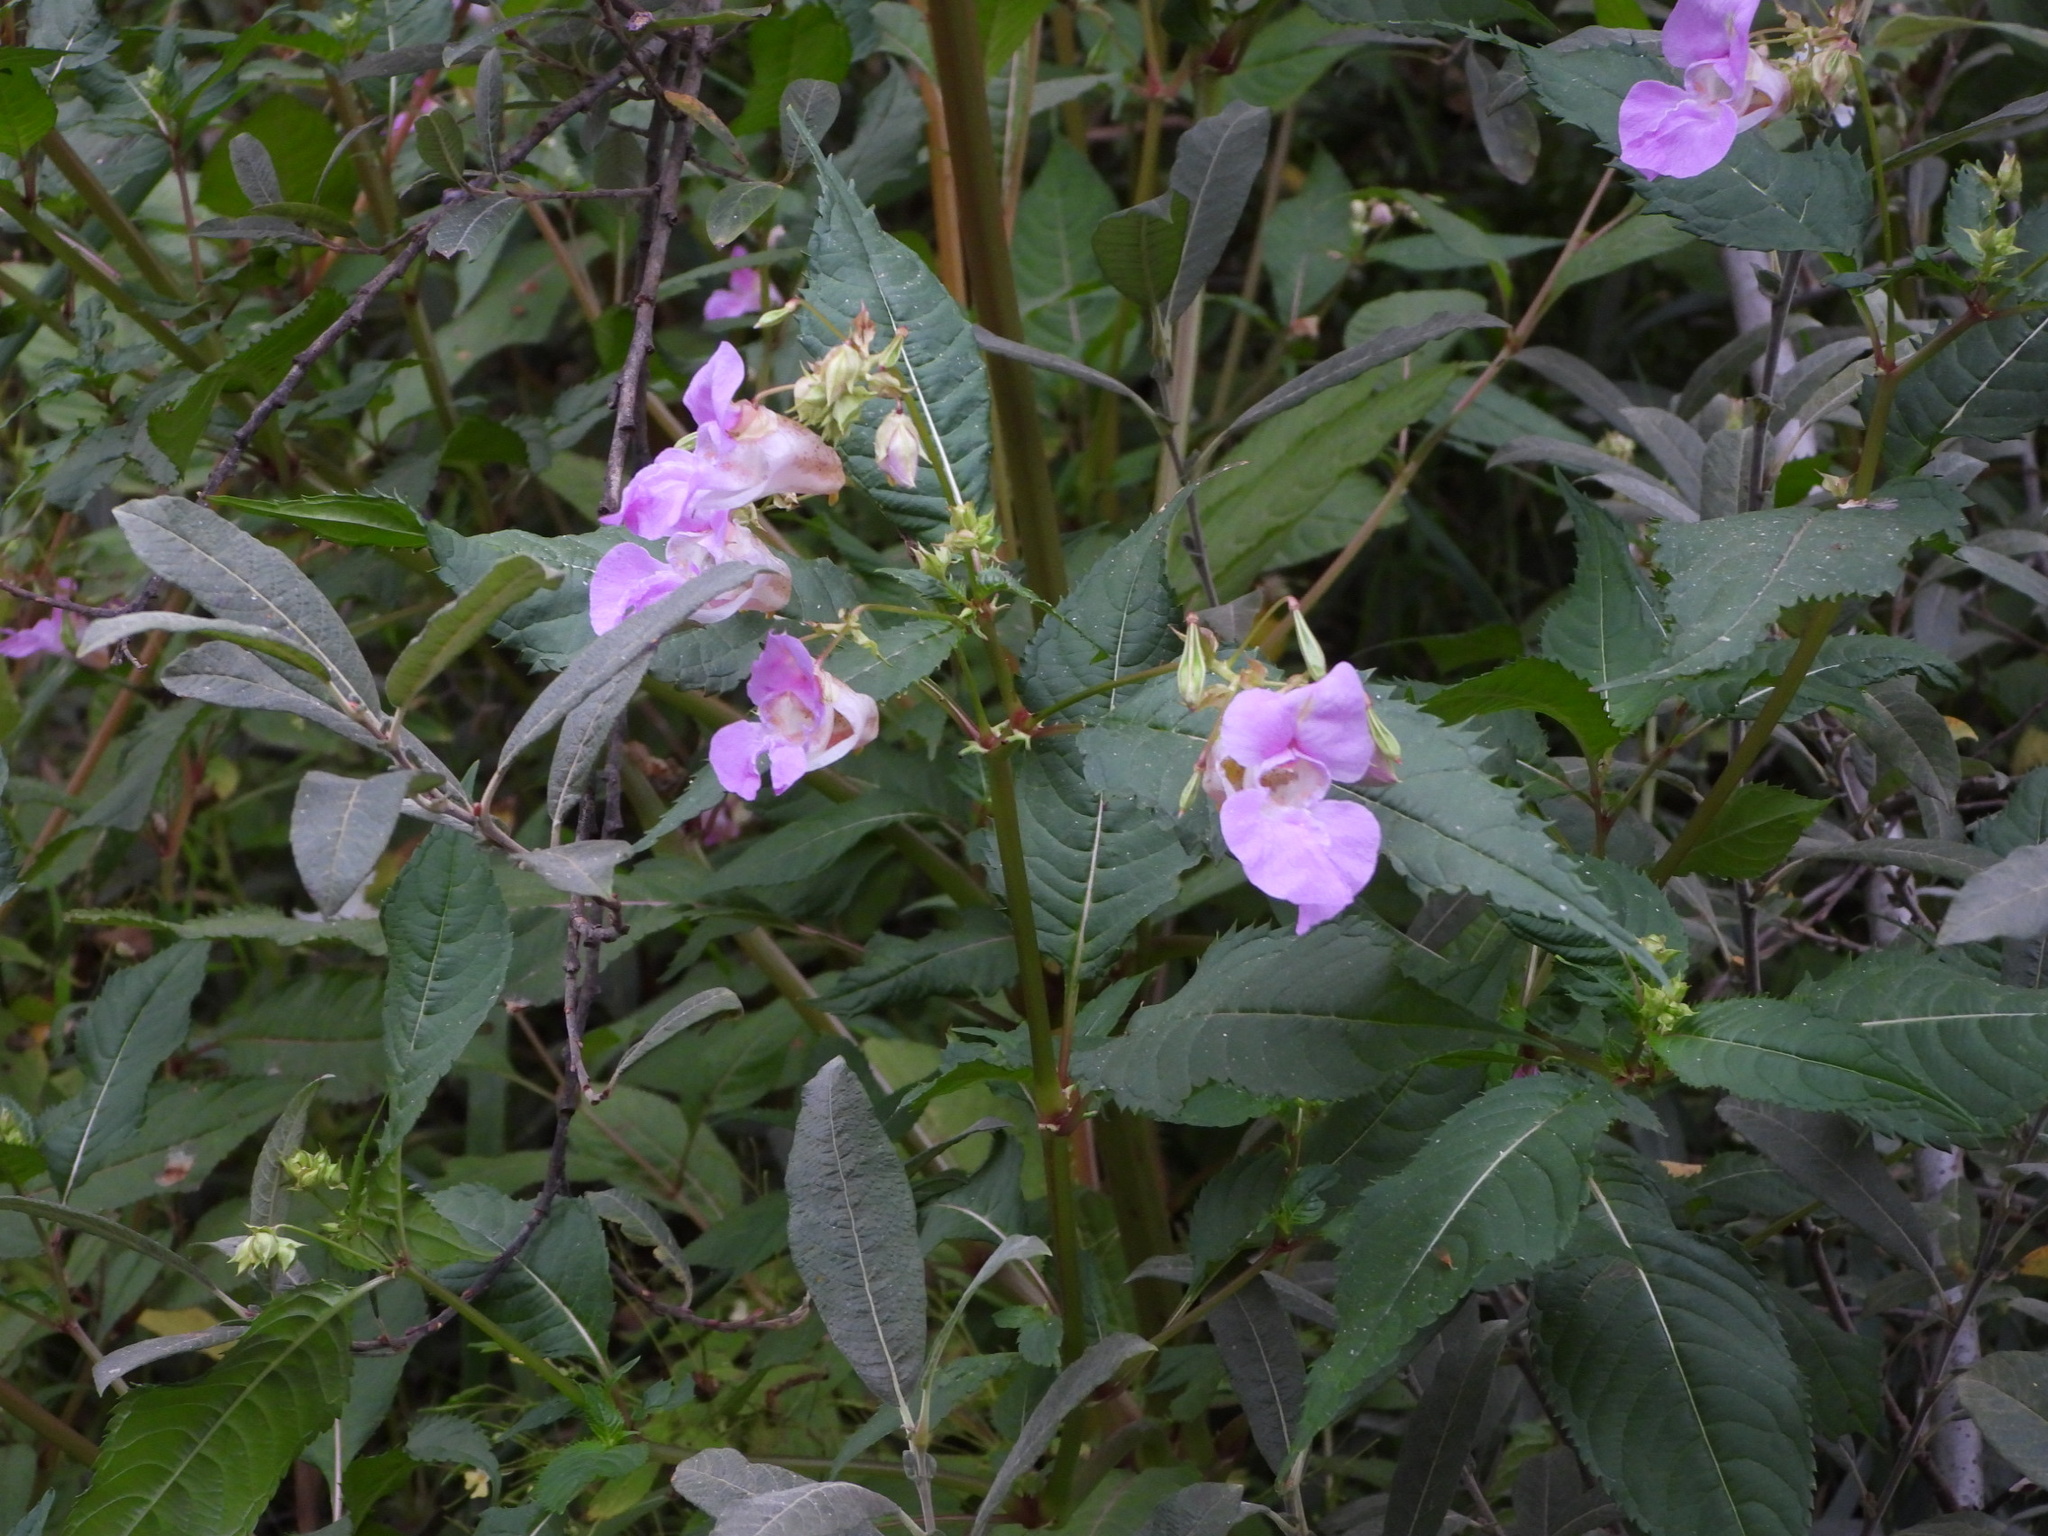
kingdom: Plantae
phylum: Tracheophyta
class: Magnoliopsida
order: Ericales
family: Balsaminaceae
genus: Impatiens
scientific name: Impatiens glandulifera
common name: Himalayan balsam
